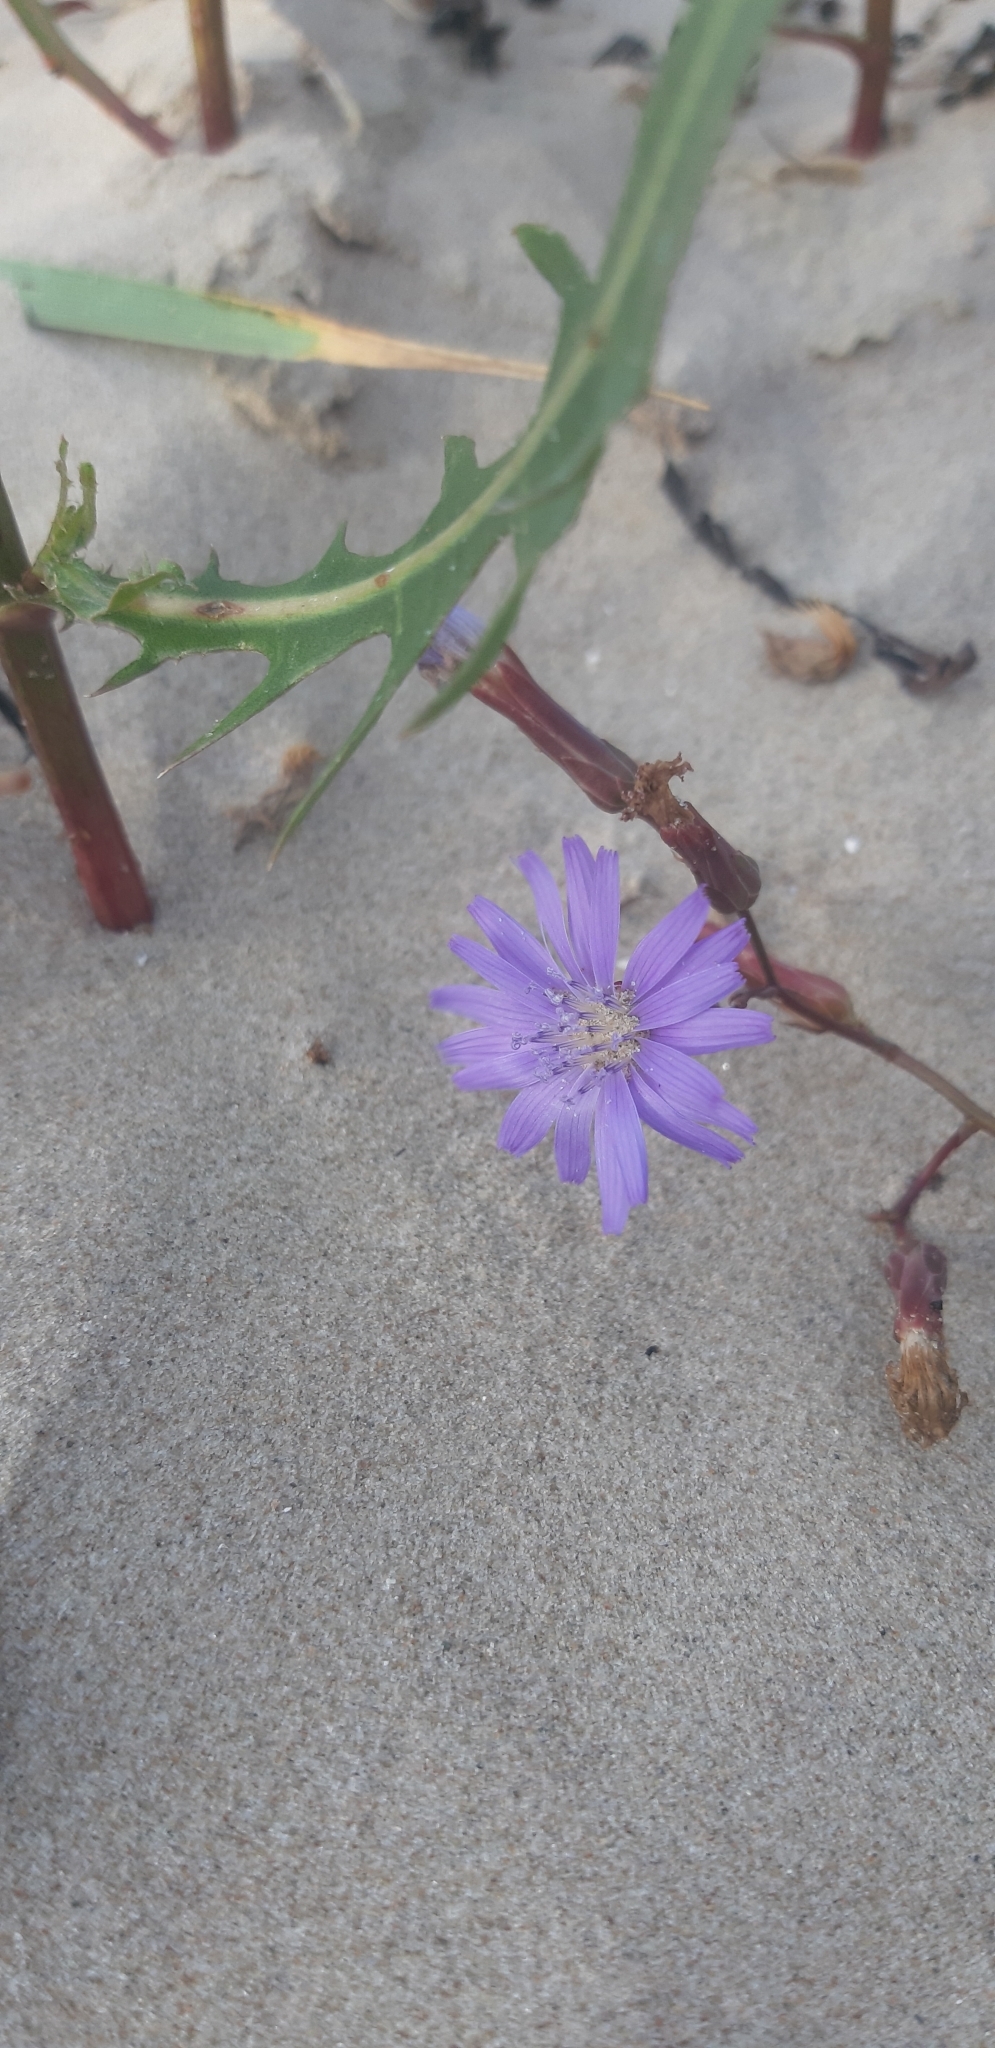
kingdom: Plantae
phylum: Tracheophyta
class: Magnoliopsida
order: Asterales
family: Asteraceae
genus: Lactuca
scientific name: Lactuca tatarica
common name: Blue lettuce
